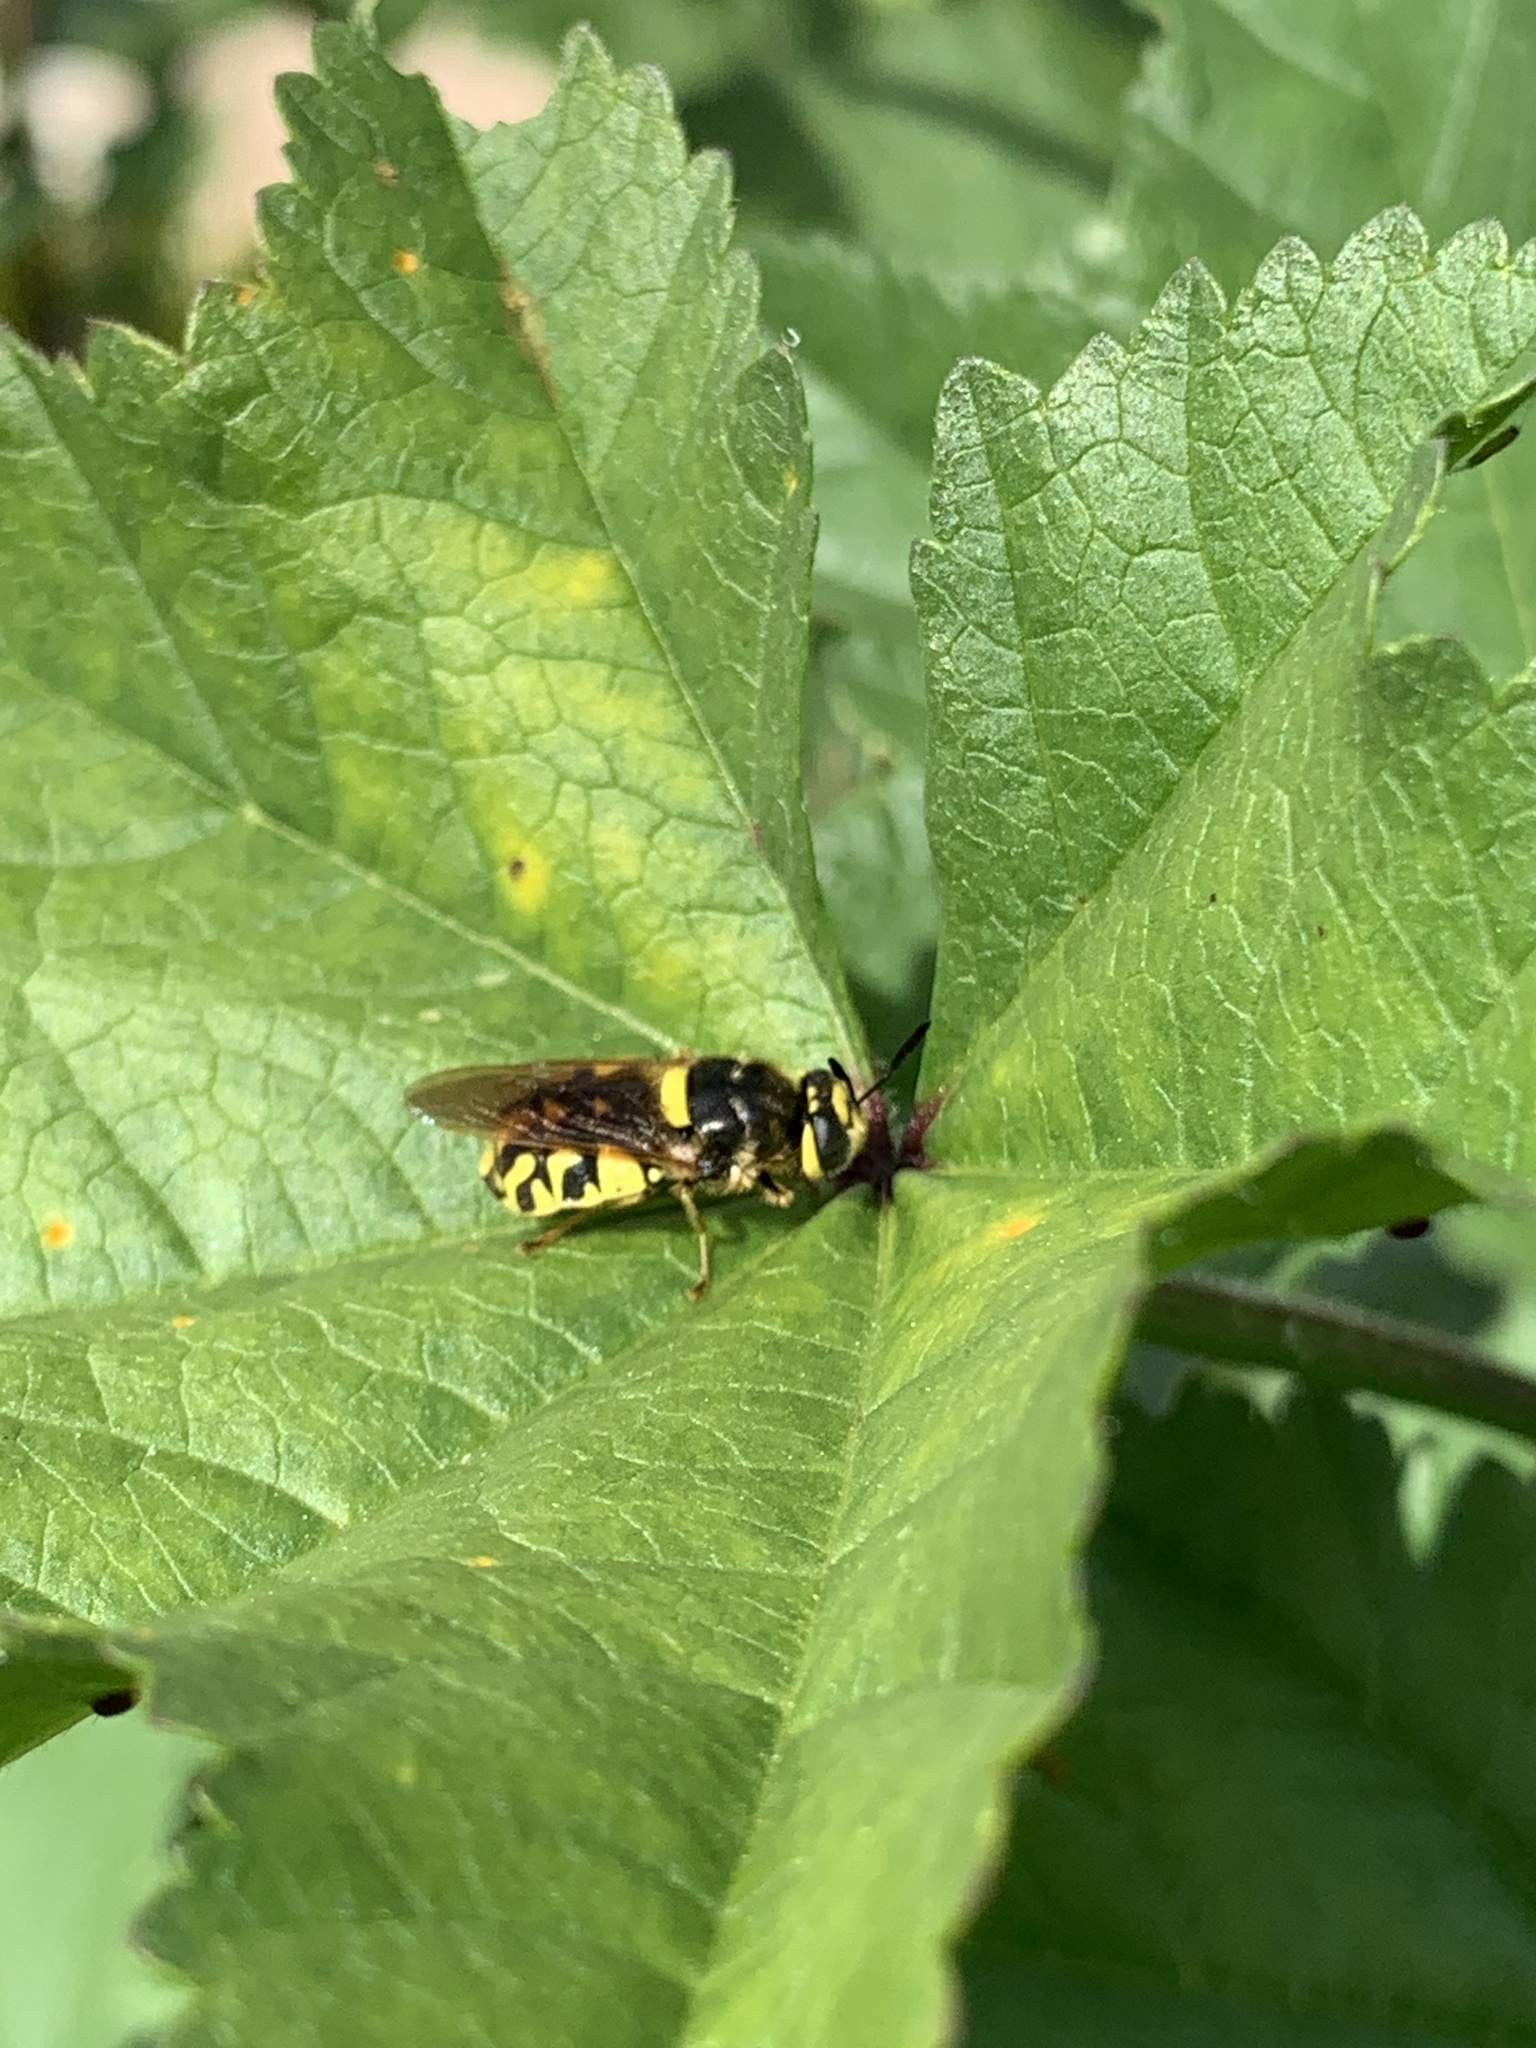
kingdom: Animalia
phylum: Arthropoda
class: Insecta
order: Diptera
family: Stratiomyidae
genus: Stratiomys
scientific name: Stratiomys maculosa
